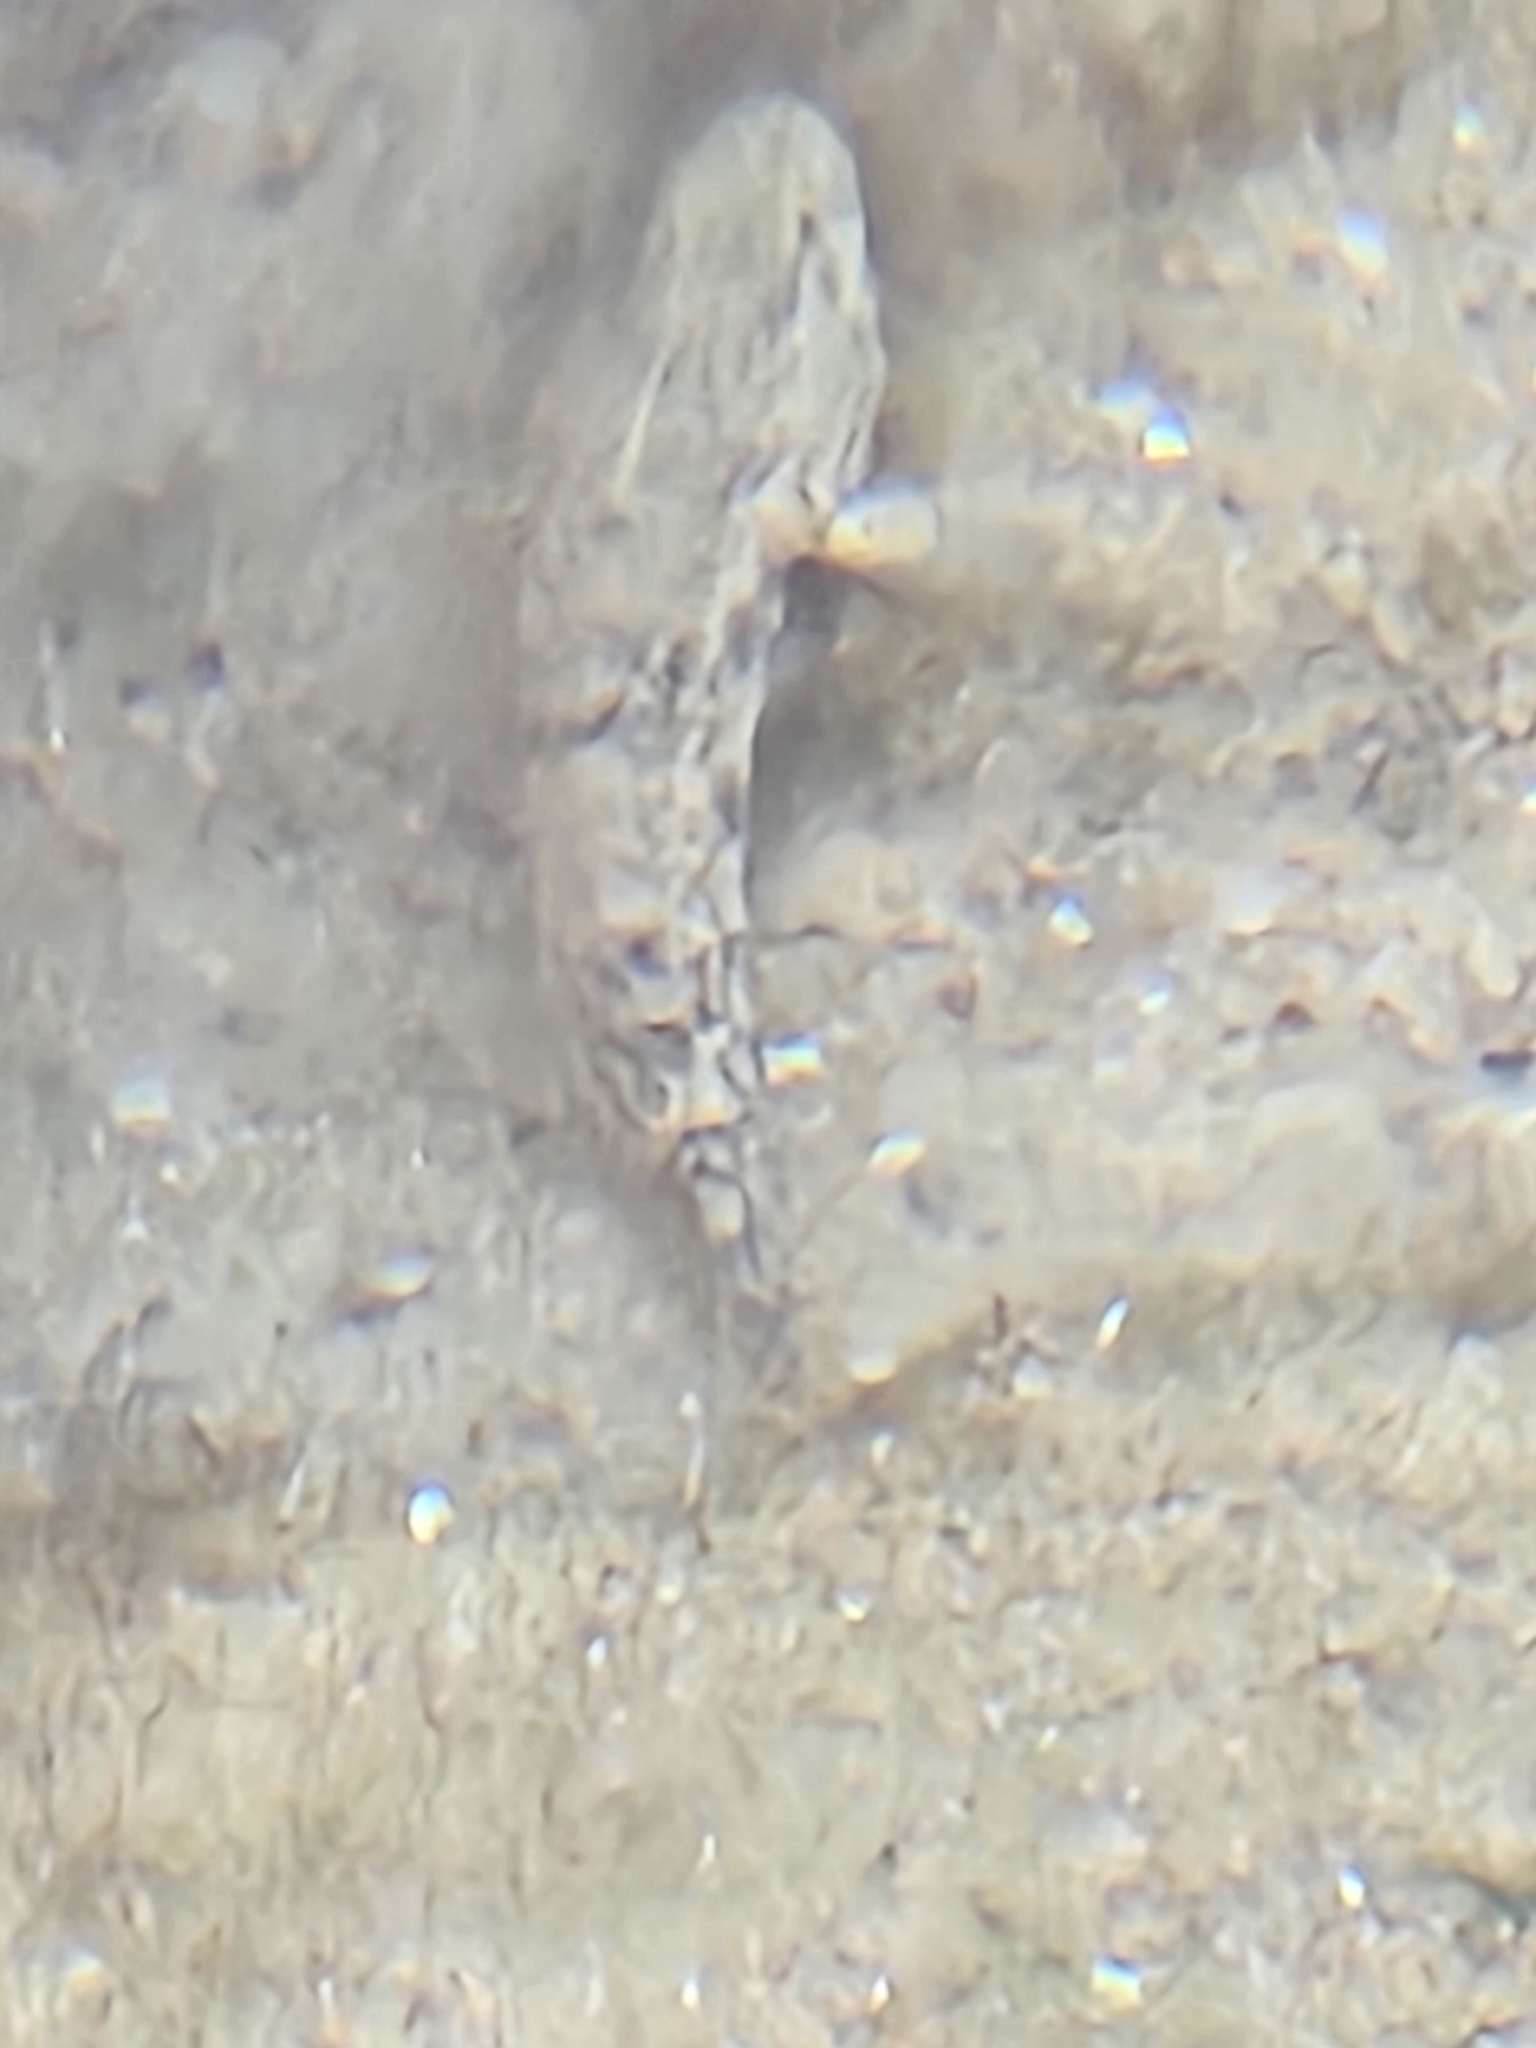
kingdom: Animalia
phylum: Chordata
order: Perciformes
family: Gobiidae
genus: Gobius
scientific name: Gobius cobitis
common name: Giant goby
